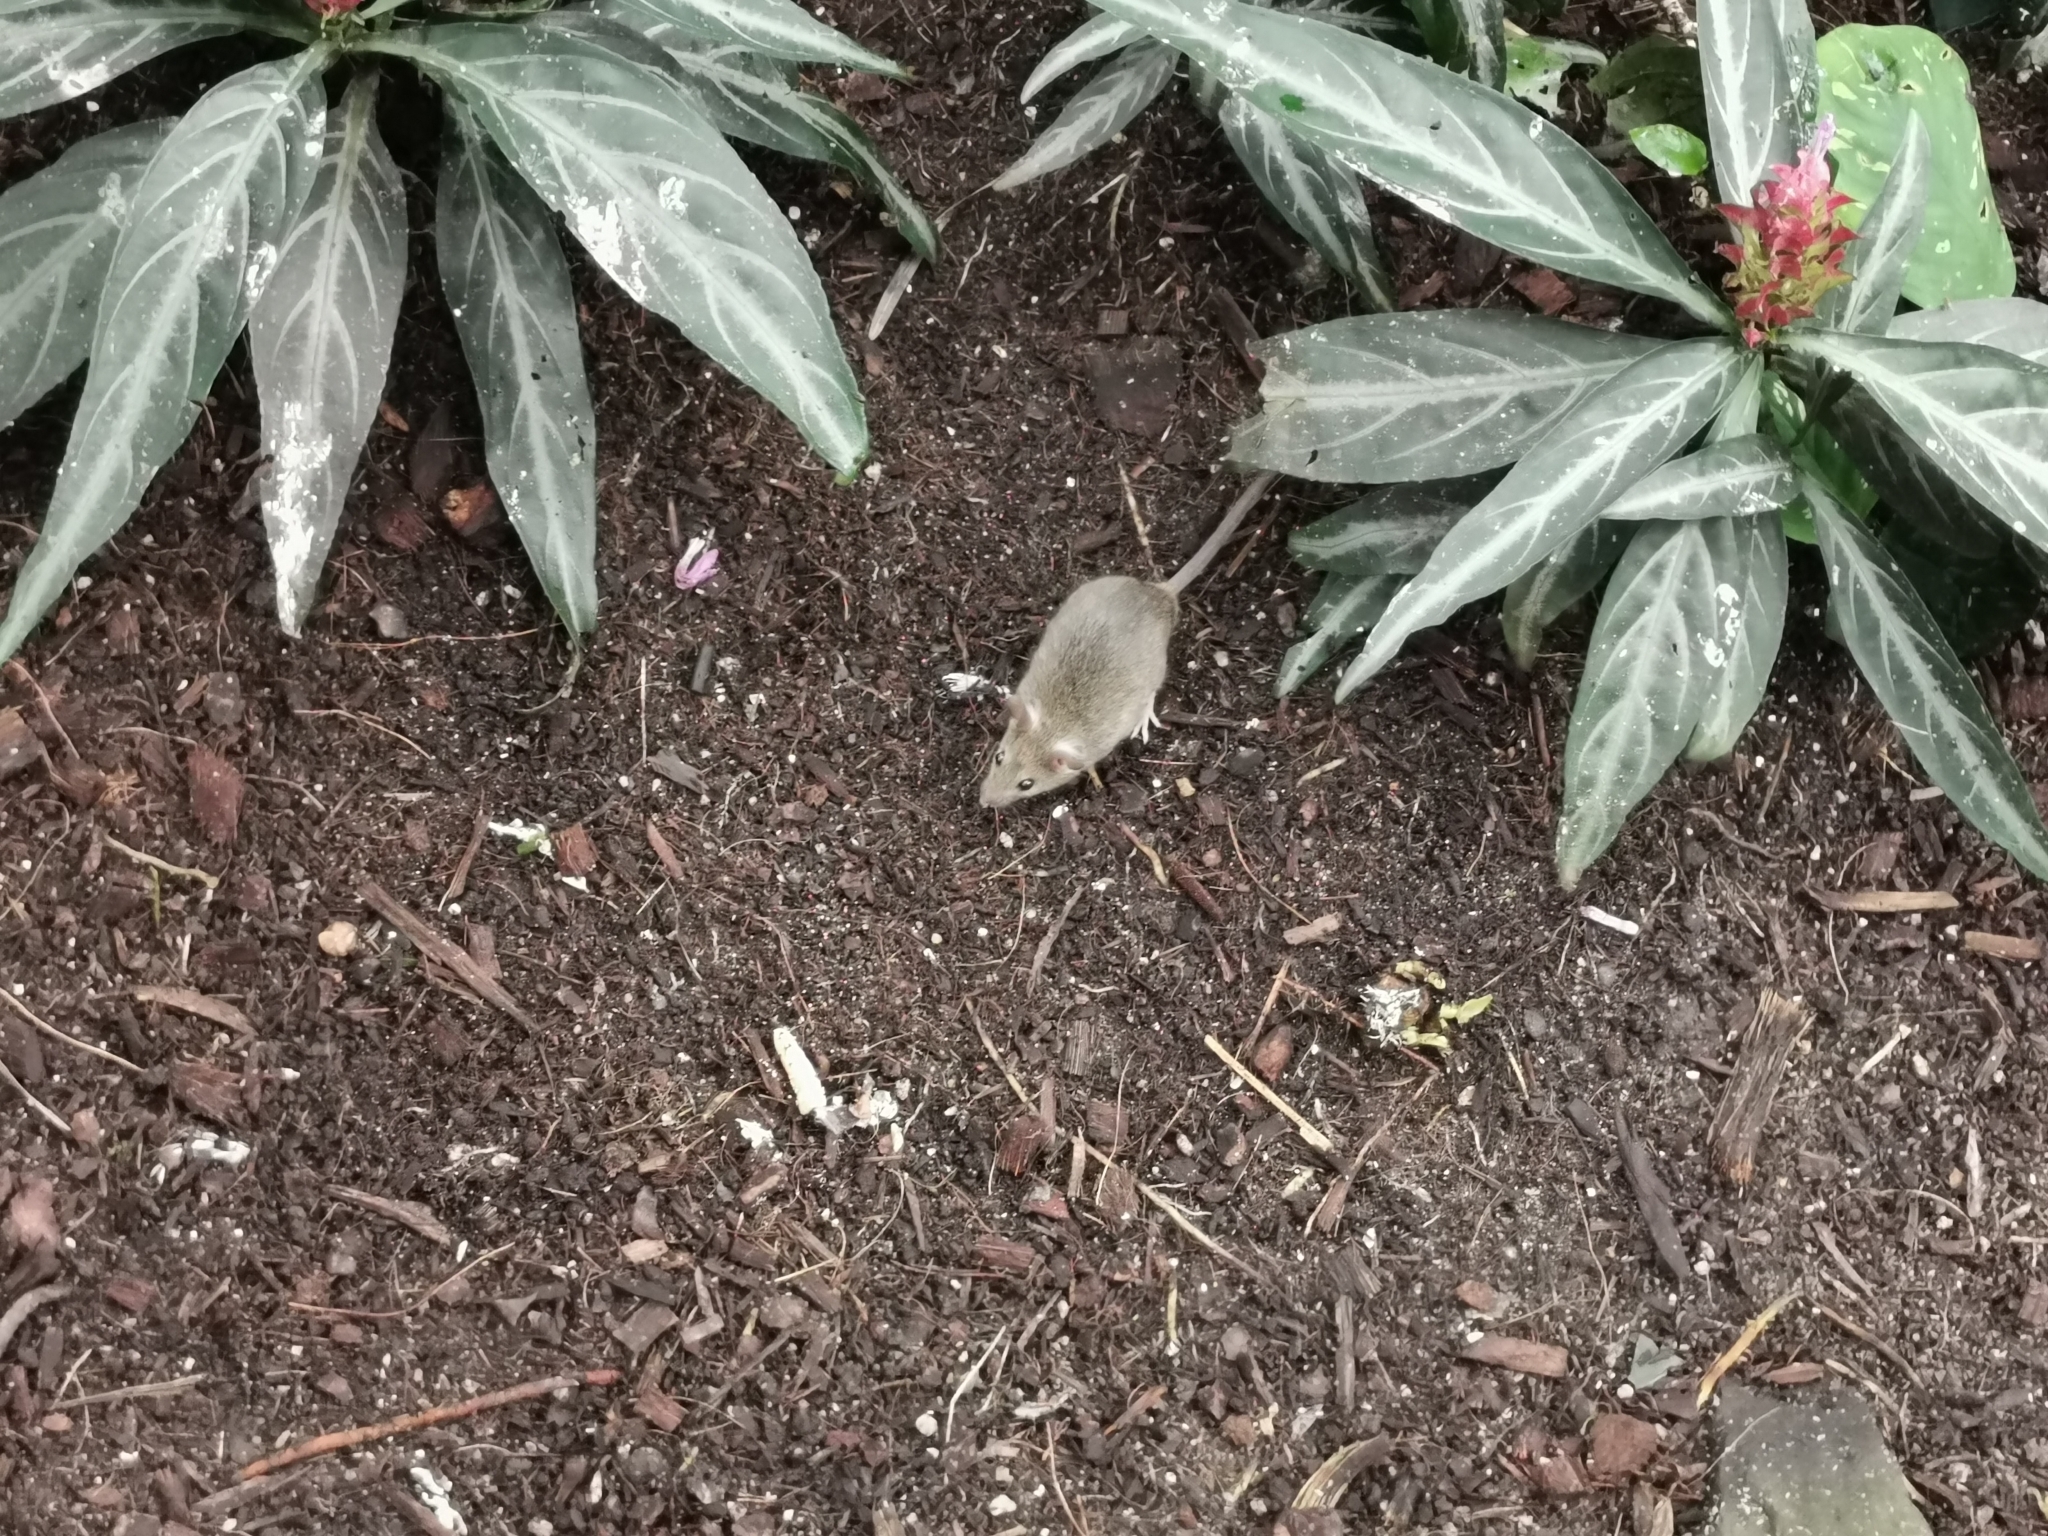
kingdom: Animalia
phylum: Chordata
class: Mammalia
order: Rodentia
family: Muridae
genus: Mus
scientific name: Mus musculus
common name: House mouse
